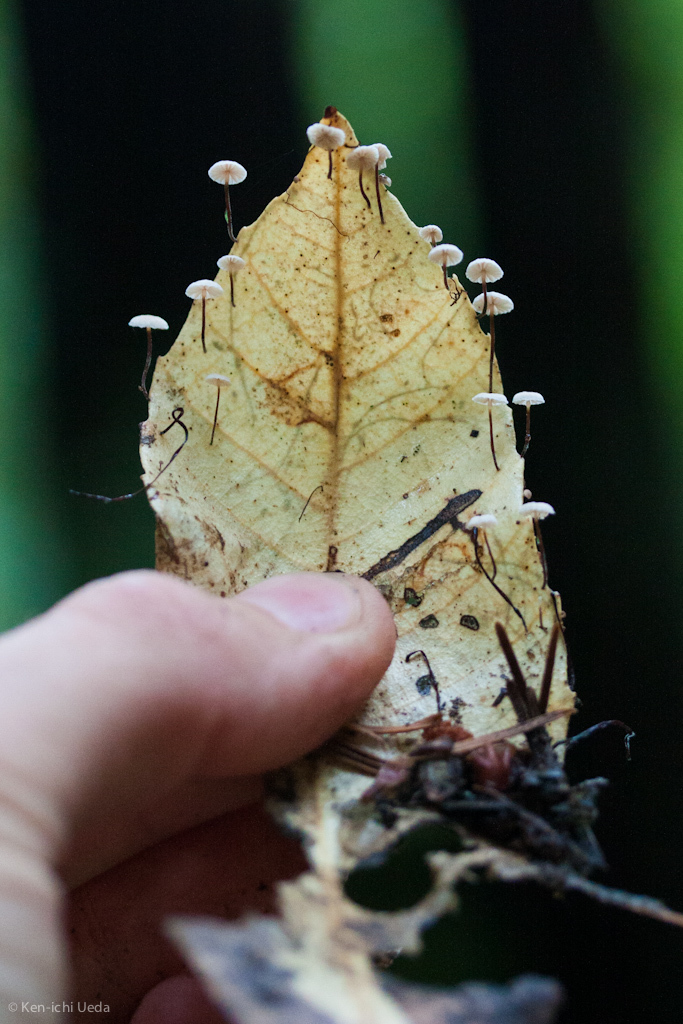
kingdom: Fungi
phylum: Basidiomycota
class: Agaricomycetes
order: Agaricales
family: Omphalotaceae
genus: Collybiopsis
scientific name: Collybiopsis quercophila
